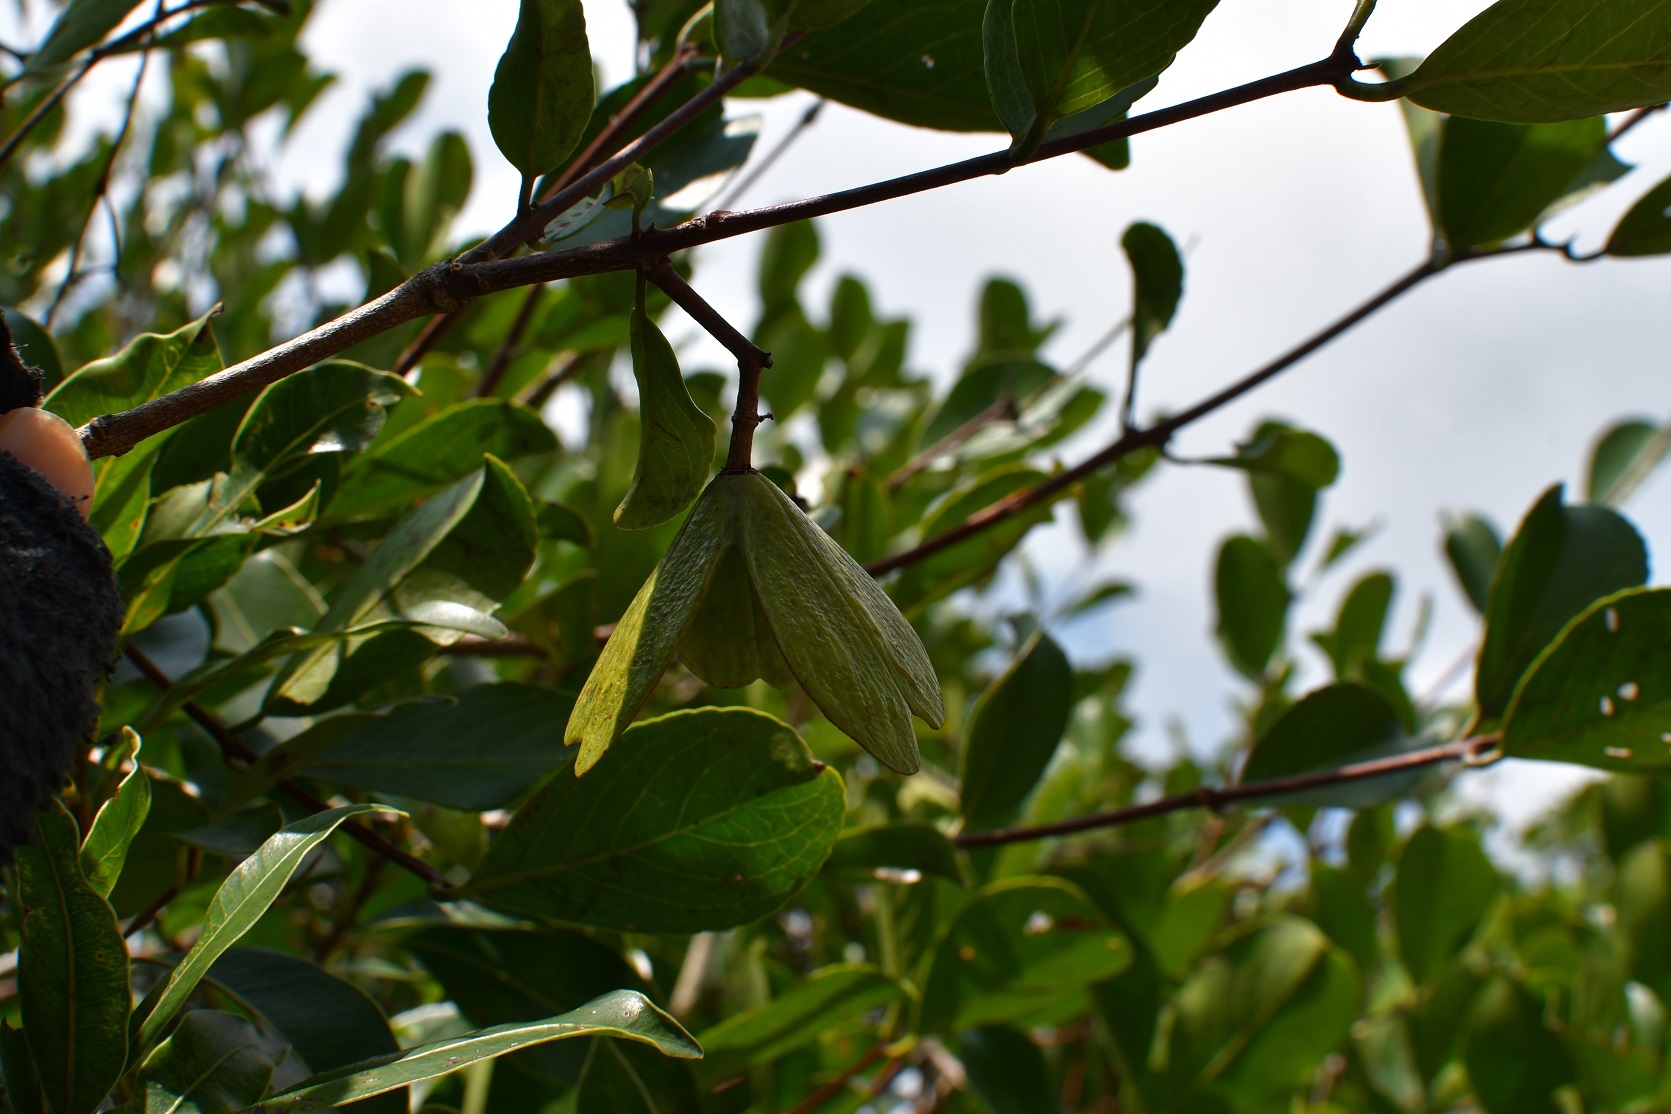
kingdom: Plantae
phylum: Tracheophyta
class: Magnoliopsida
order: Celastrales
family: Celastraceae
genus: Semialarium
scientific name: Semialarium mexicanum
